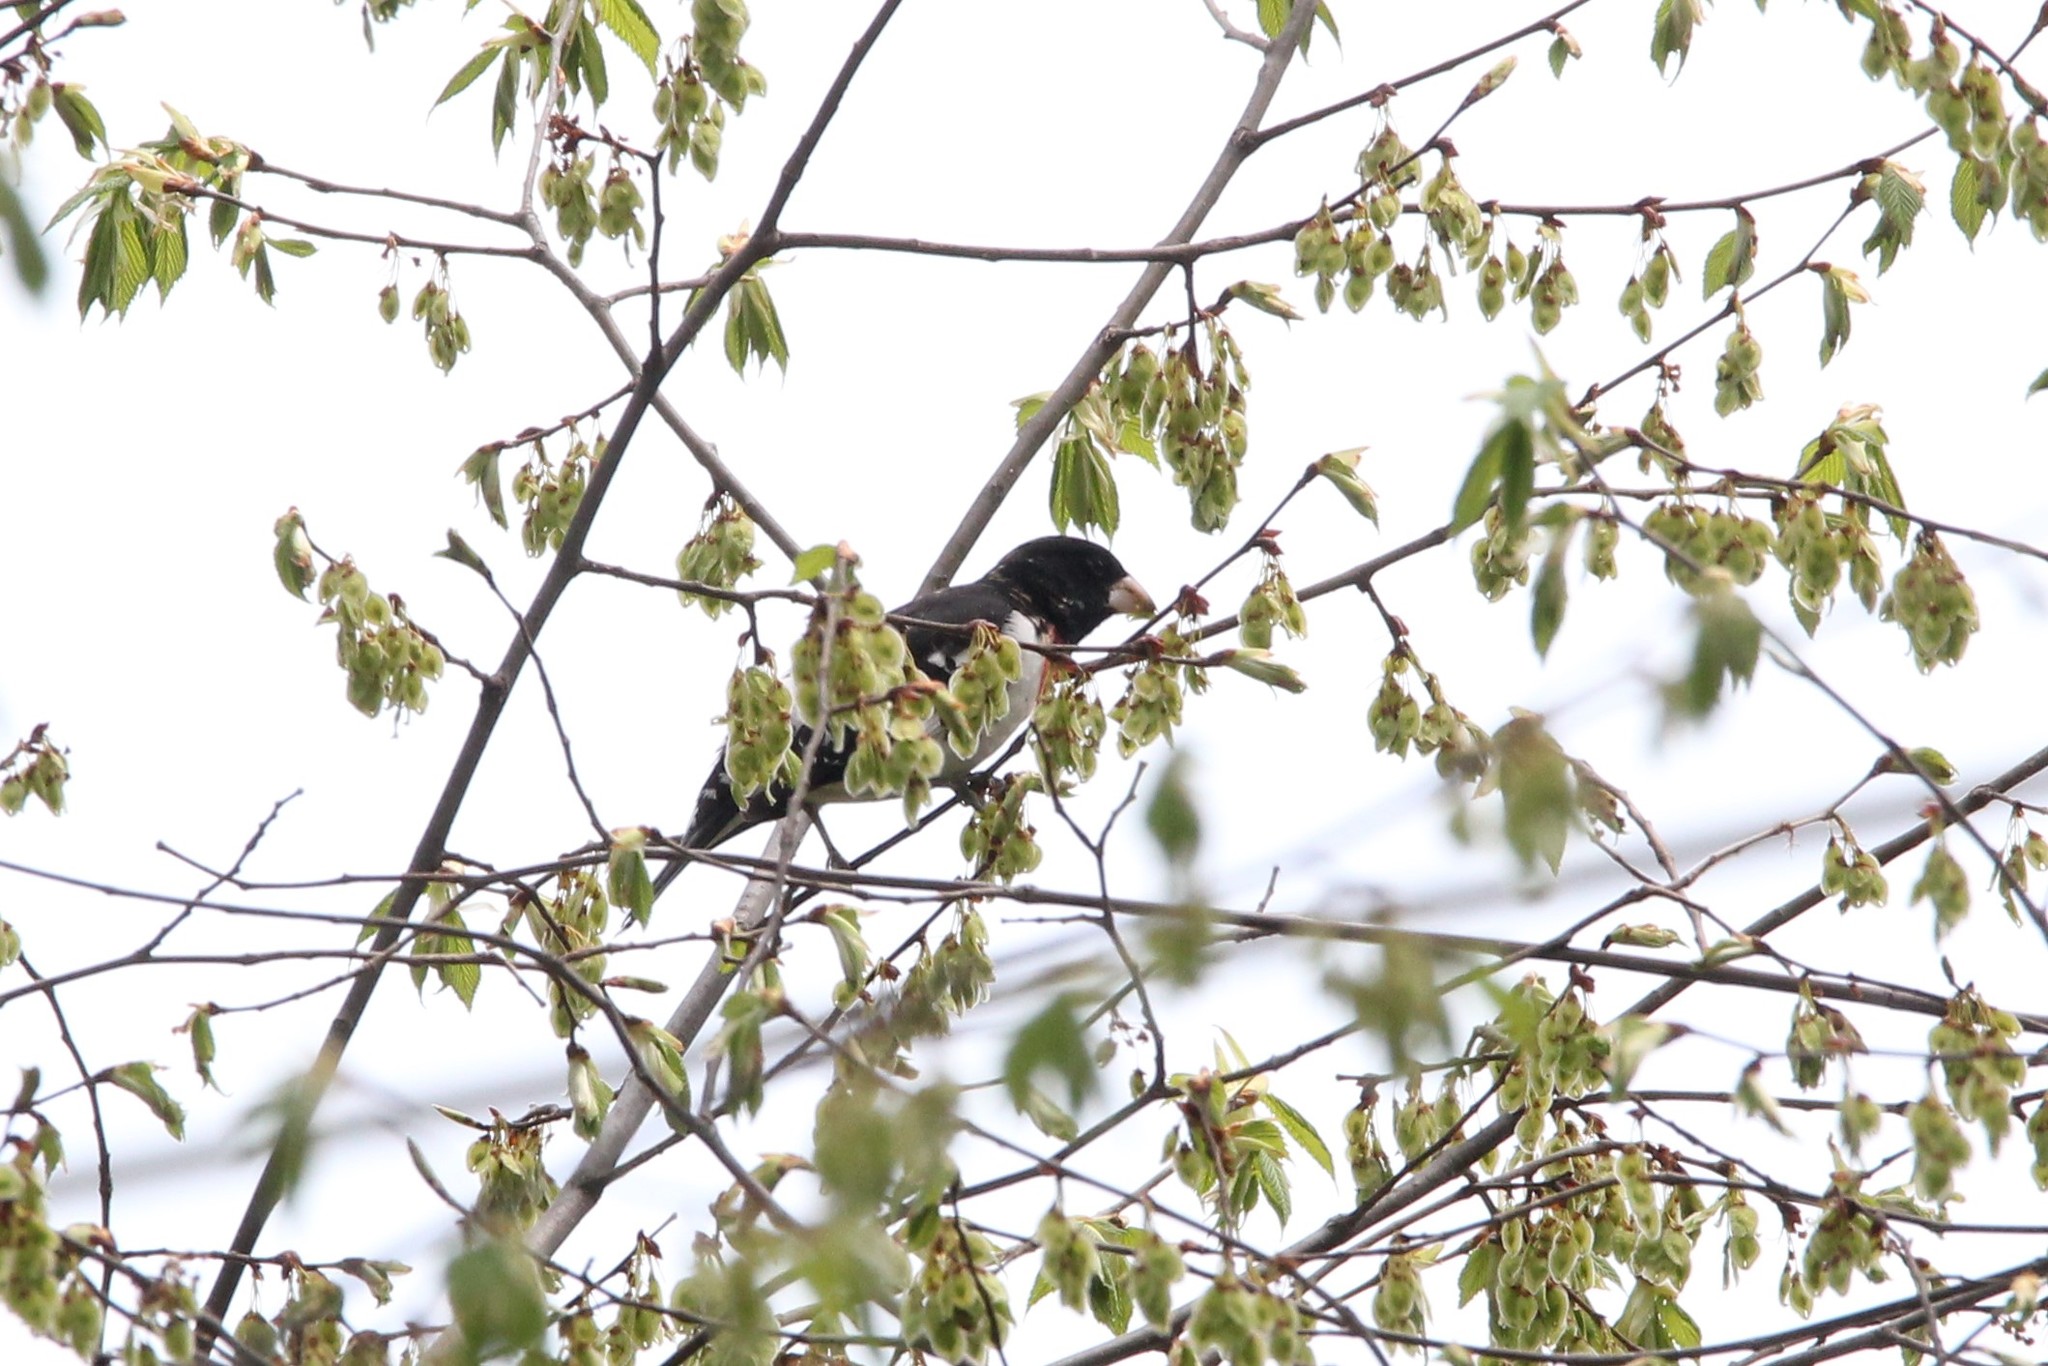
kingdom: Animalia
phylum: Chordata
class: Aves
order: Passeriformes
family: Cardinalidae
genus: Pheucticus
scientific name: Pheucticus ludovicianus
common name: Rose-breasted grosbeak
